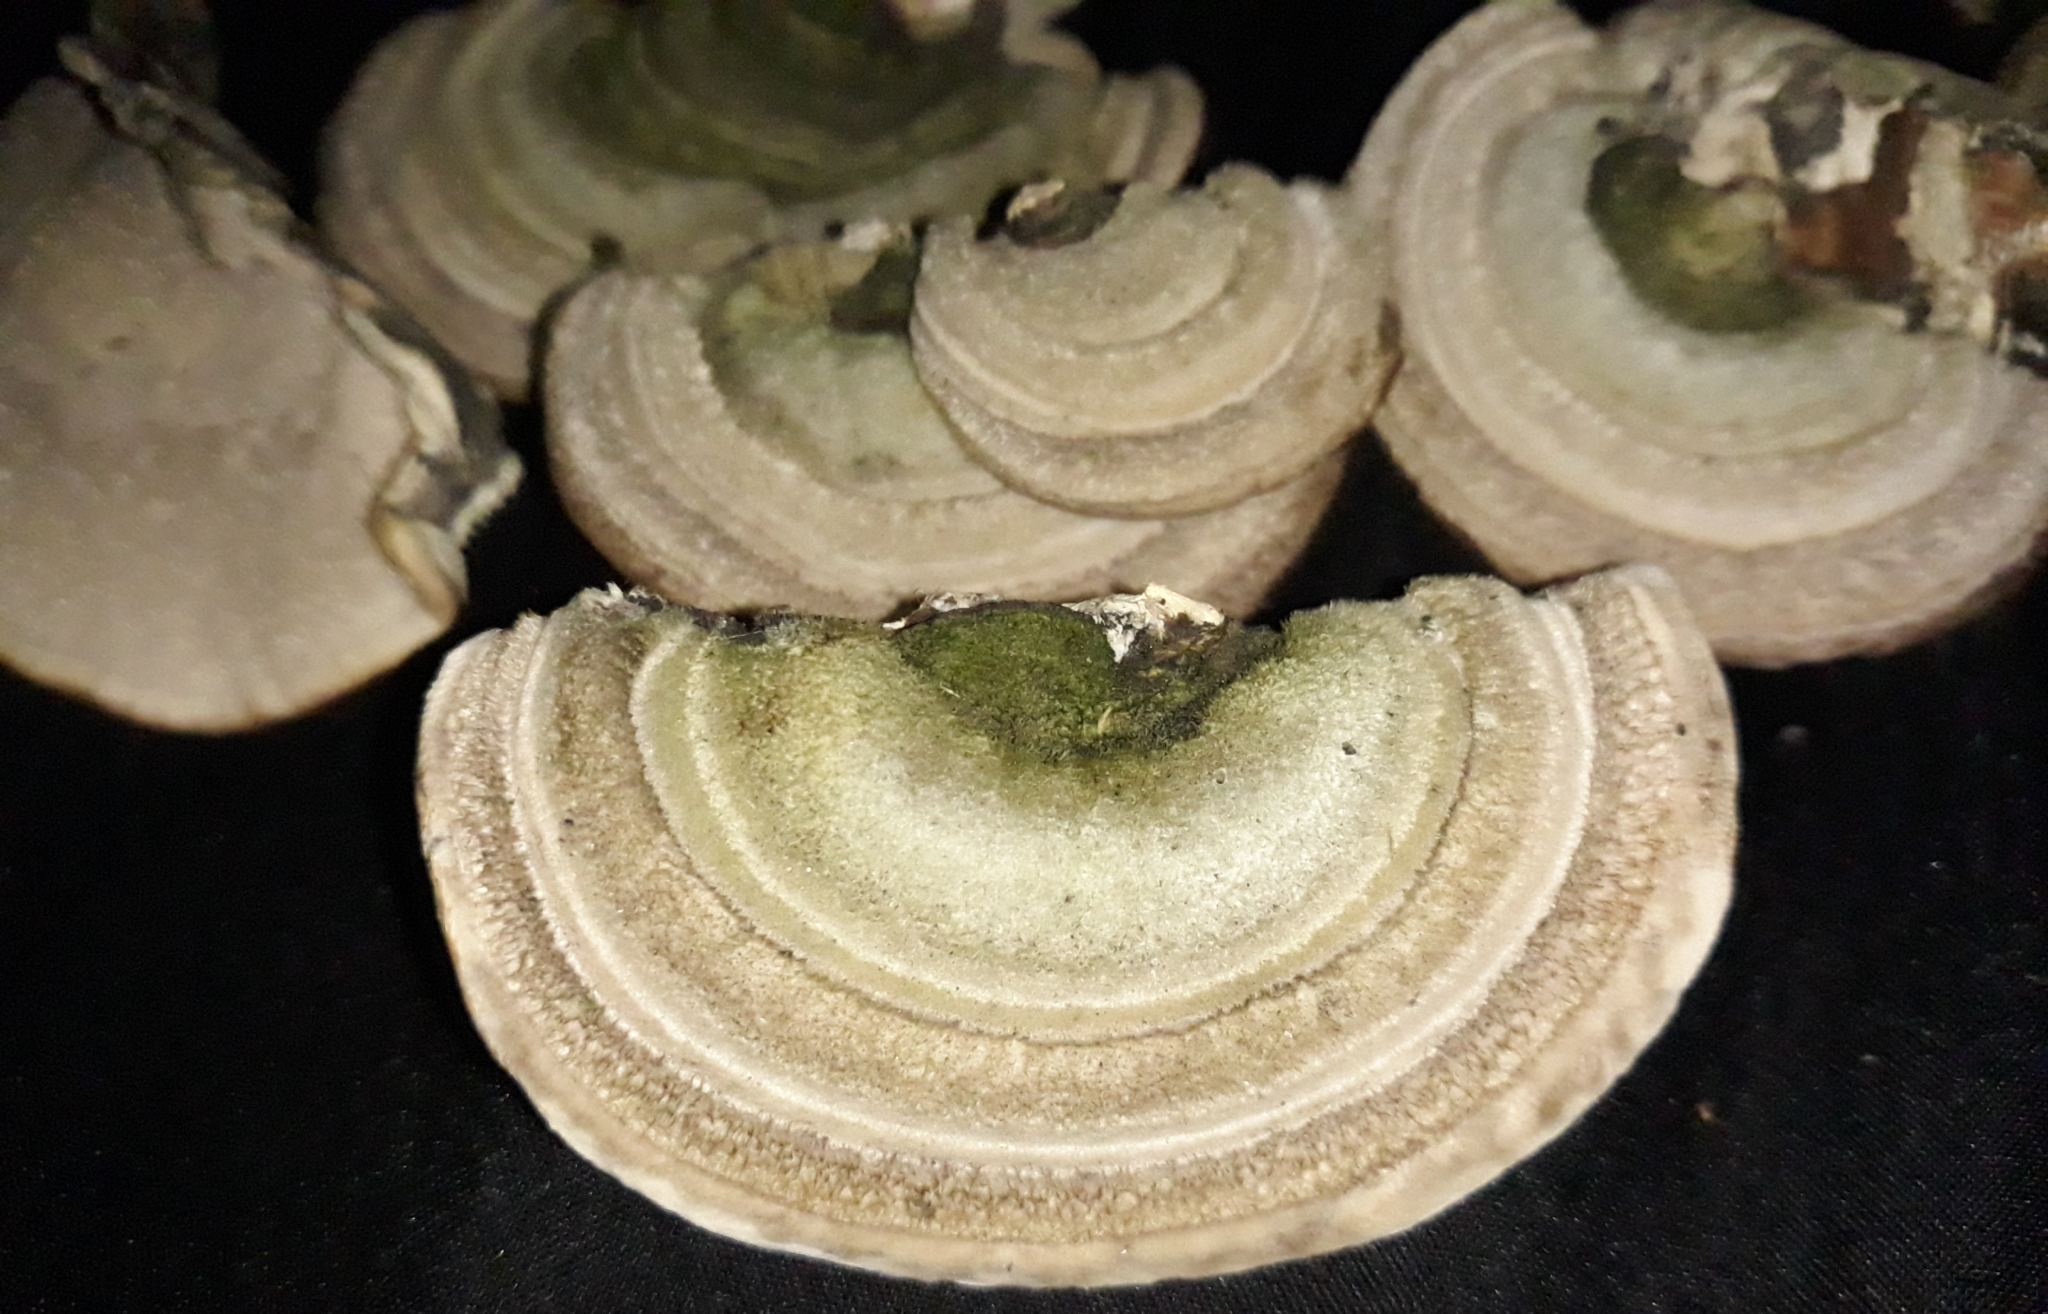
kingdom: Fungi
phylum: Basidiomycota
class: Agaricomycetes
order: Polyporales
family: Polyporaceae
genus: Trametes
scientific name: Trametes hirsuta
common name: Hairy bracket
